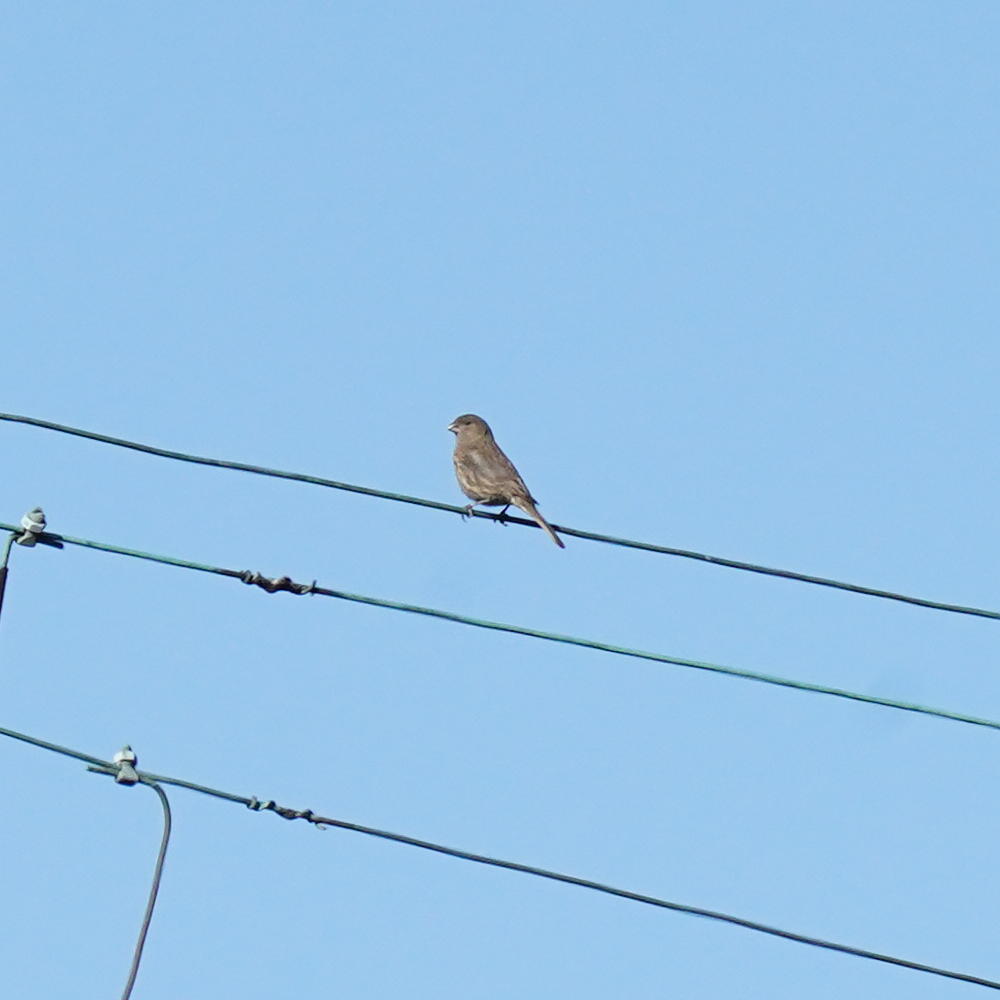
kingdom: Animalia
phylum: Chordata
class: Aves
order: Passeriformes
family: Fringillidae
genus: Haemorhous
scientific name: Haemorhous mexicanus
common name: House finch
